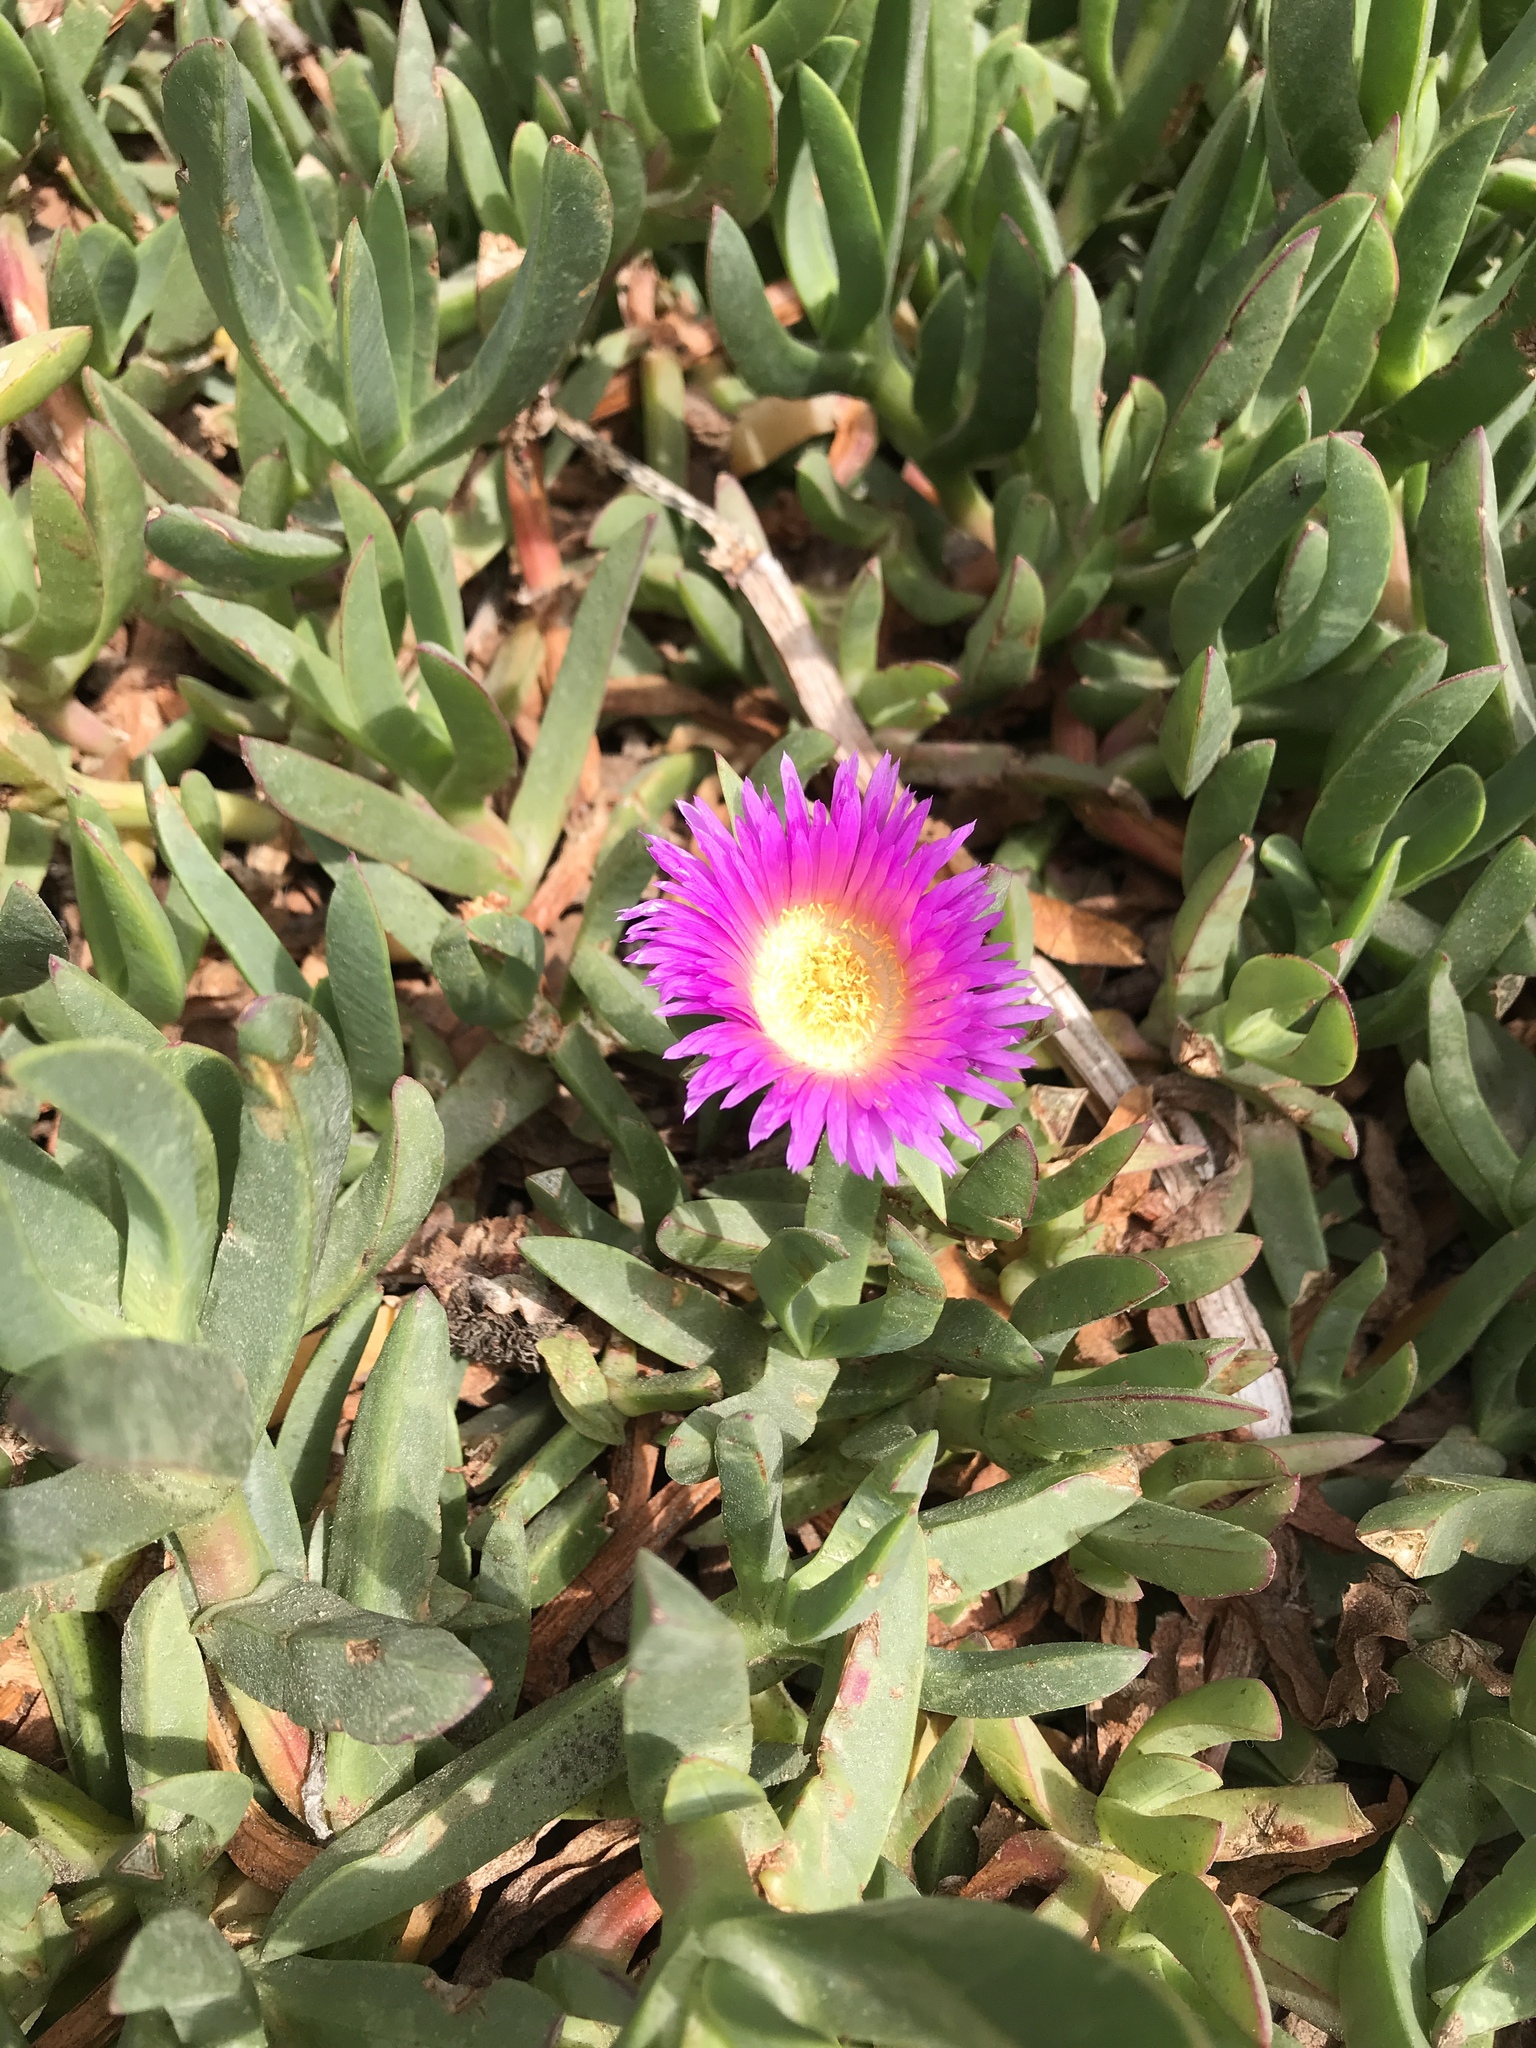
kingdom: Plantae
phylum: Tracheophyta
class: Magnoliopsida
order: Caryophyllales
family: Aizoaceae
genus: Carpobrotus
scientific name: Carpobrotus chilensis
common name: Sea fig
